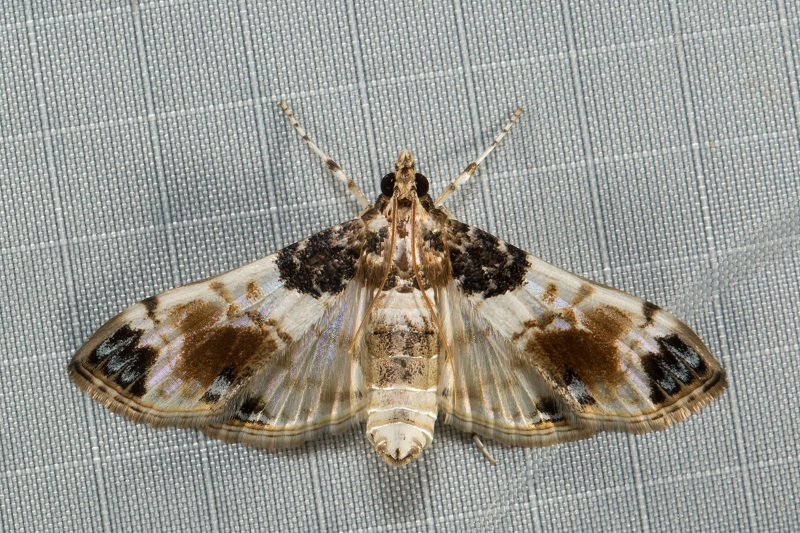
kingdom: Animalia
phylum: Arthropoda
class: Insecta
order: Lepidoptera
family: Crambidae
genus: Analyta
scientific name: Analyta calligrammalis
